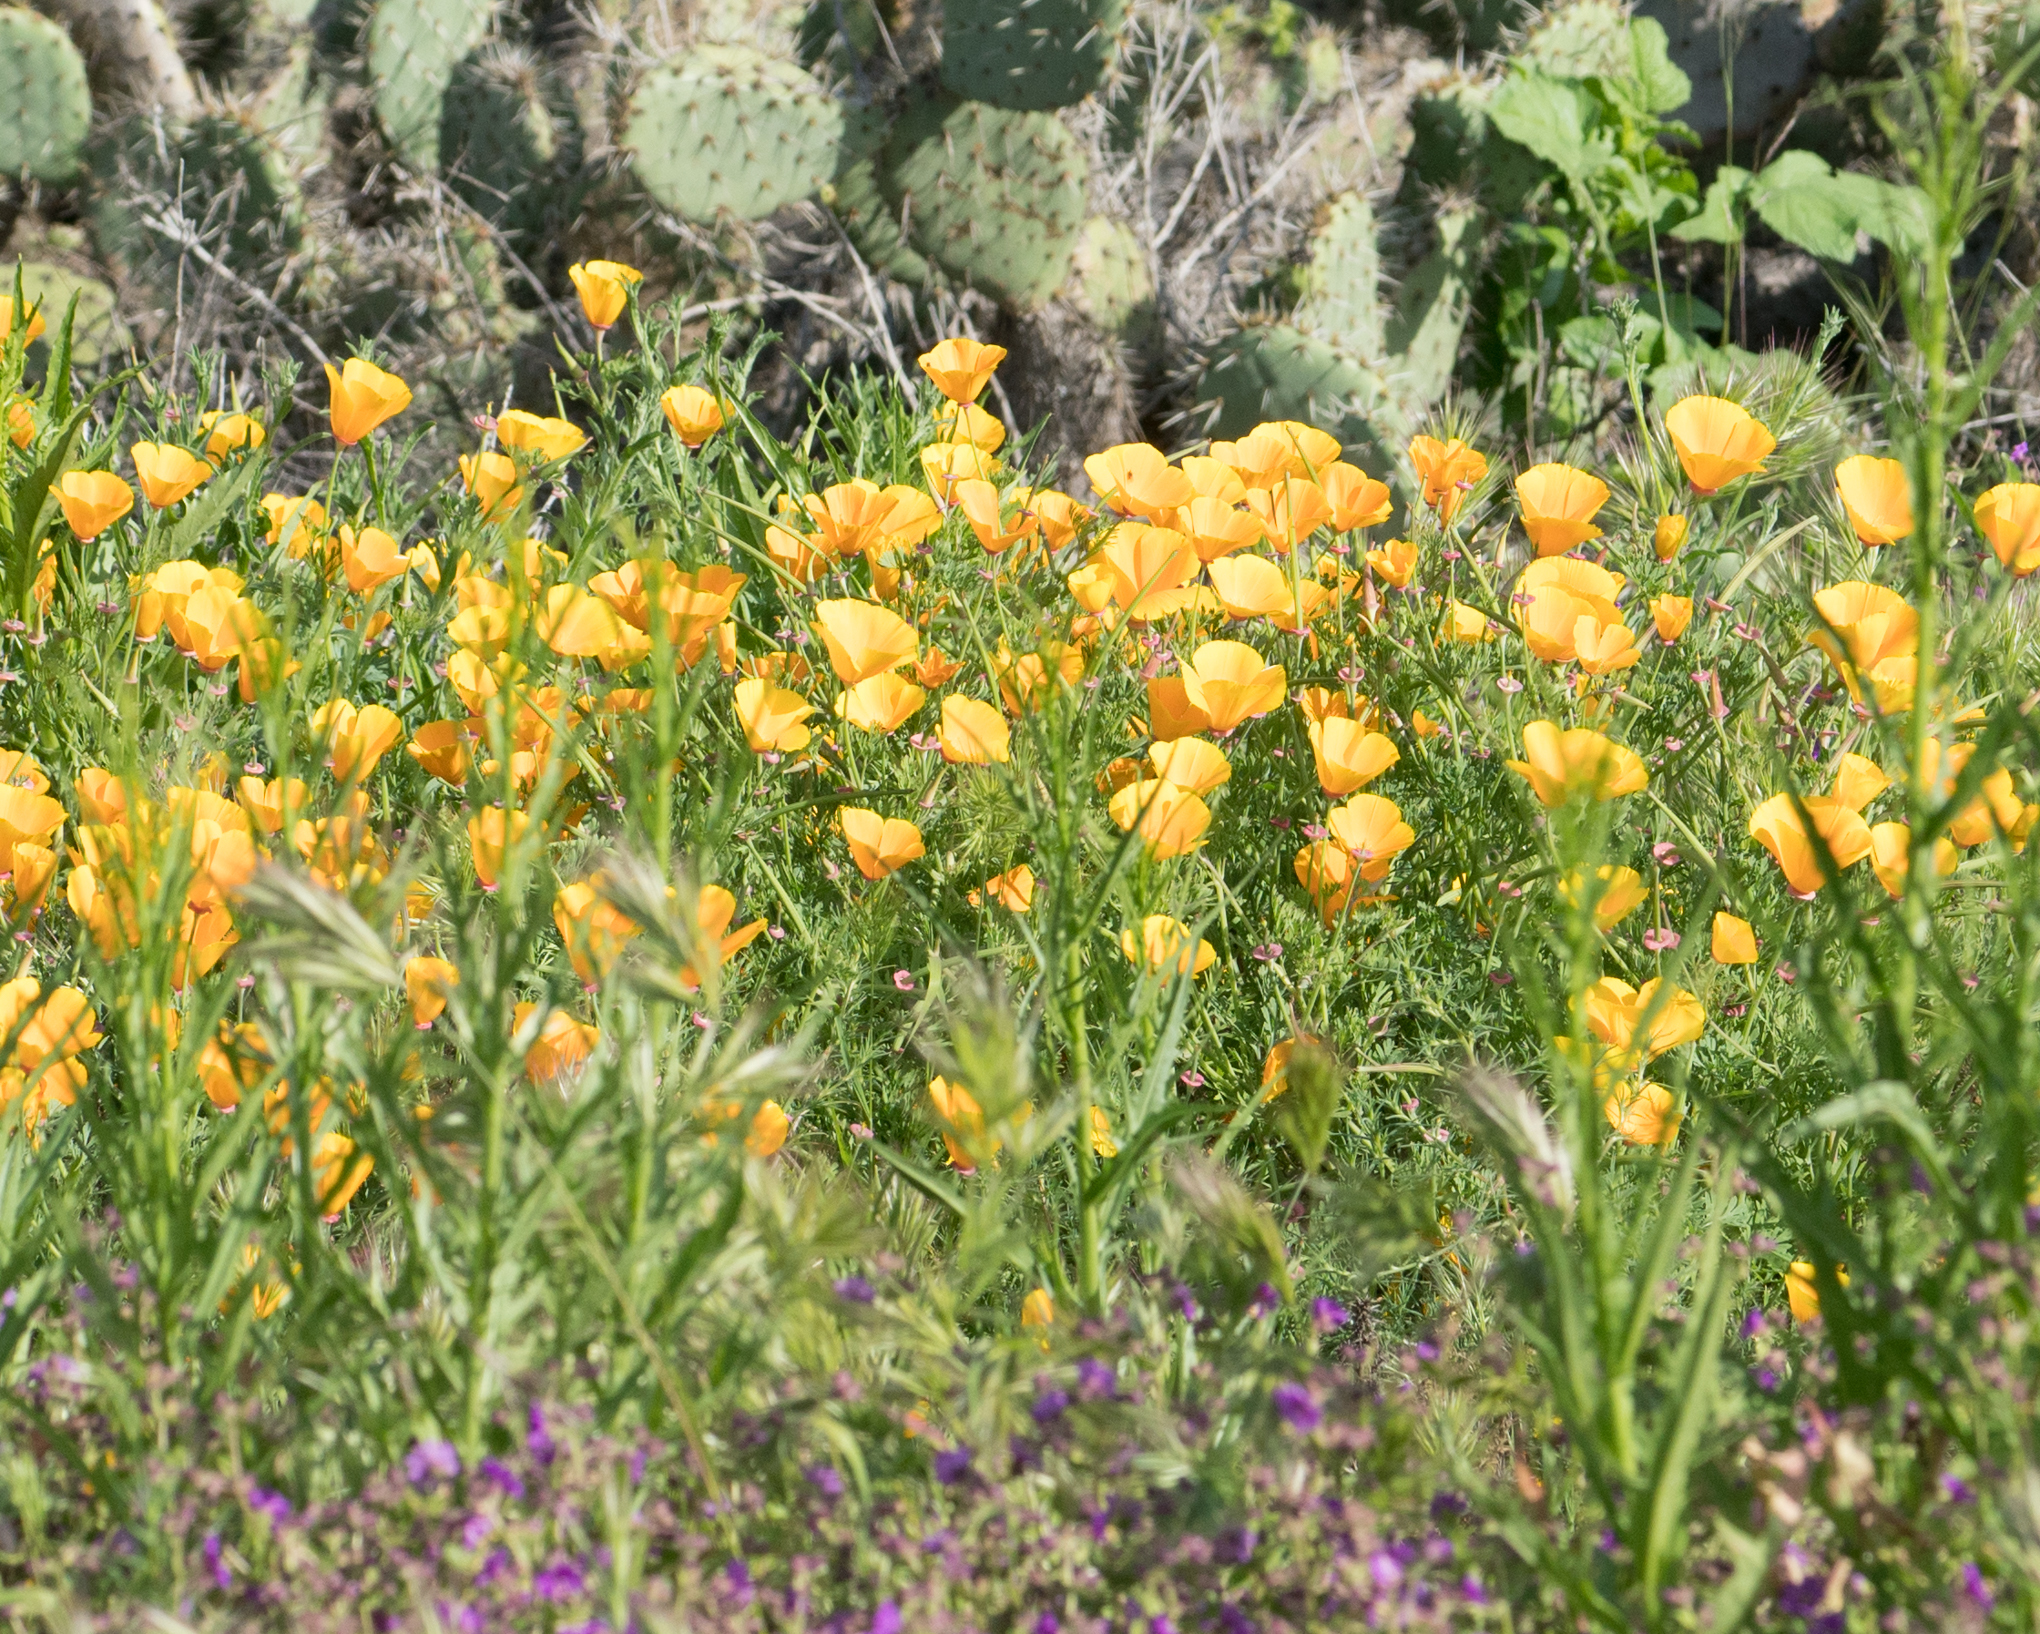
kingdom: Plantae
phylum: Tracheophyta
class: Magnoliopsida
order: Ranunculales
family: Papaveraceae
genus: Eschscholzia
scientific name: Eschscholzia californica
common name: California poppy
